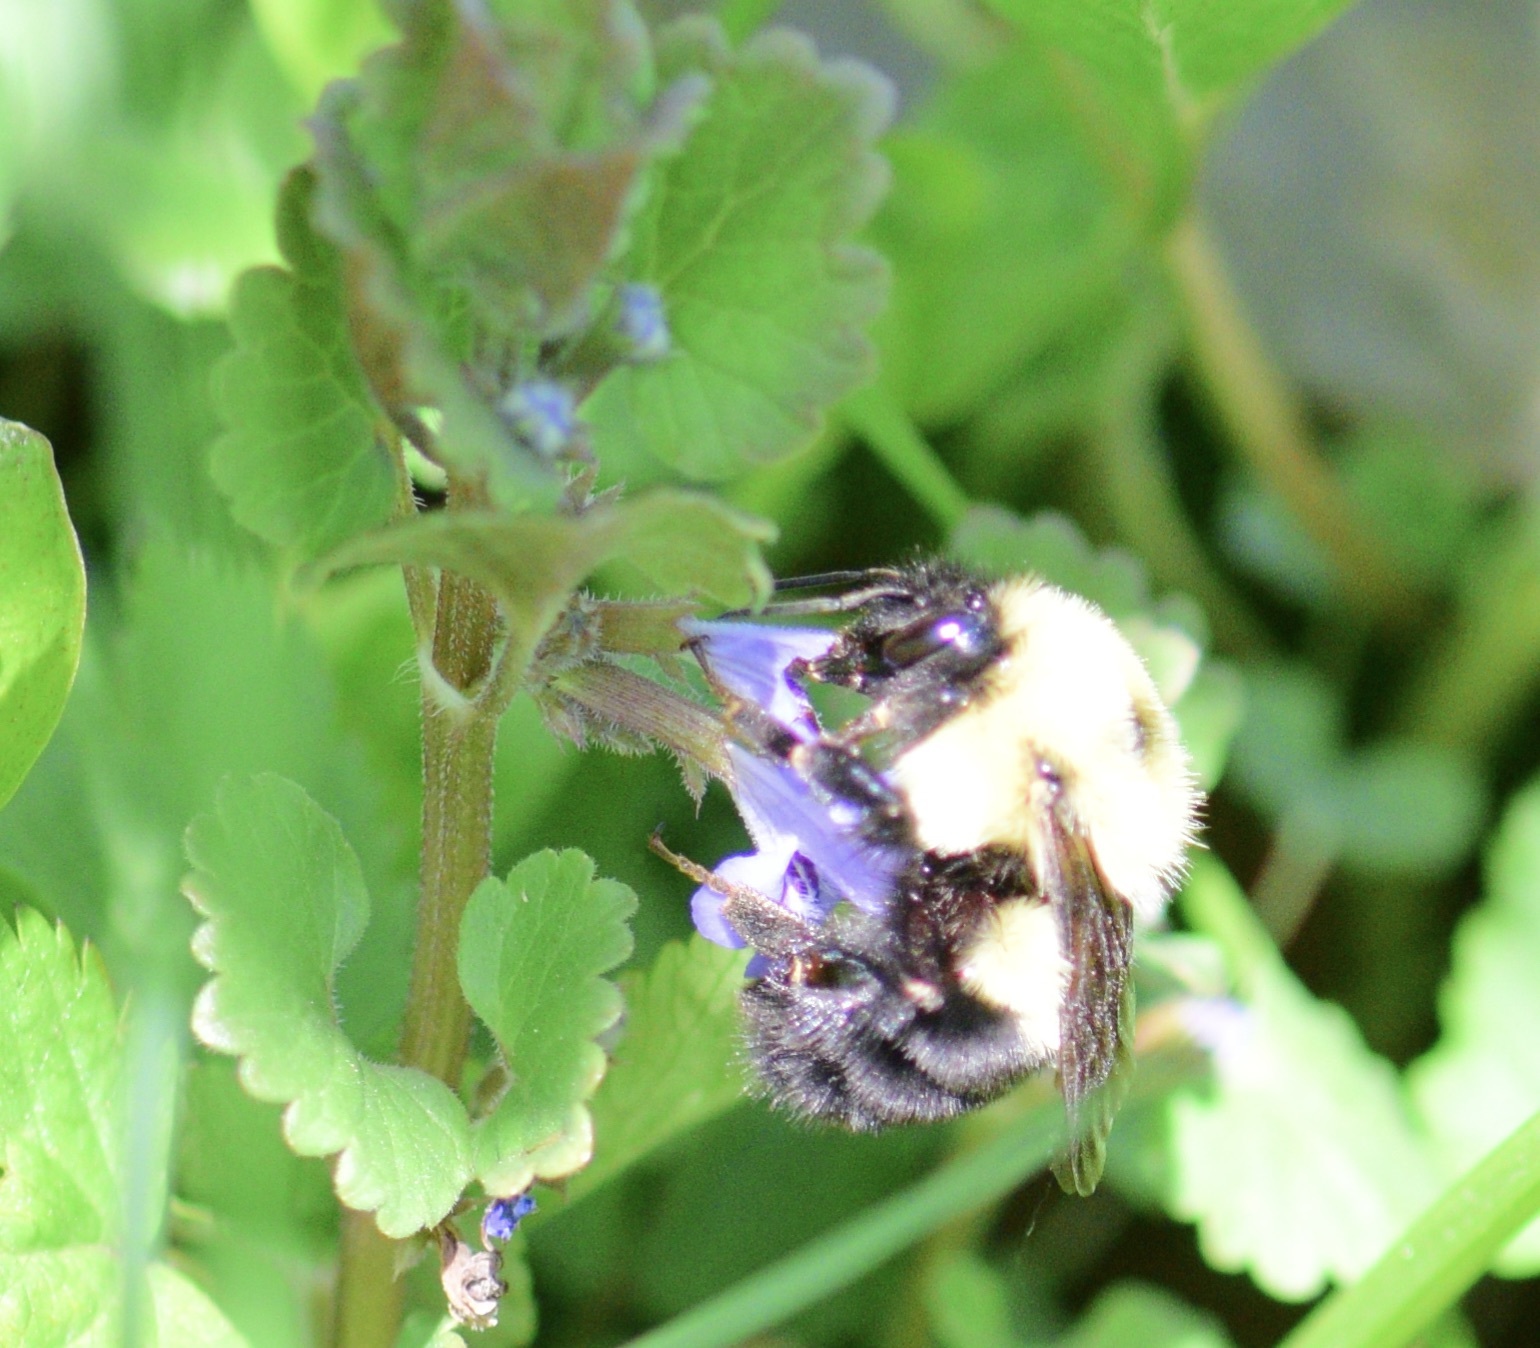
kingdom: Animalia
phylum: Arthropoda
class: Insecta
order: Hymenoptera
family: Apidae
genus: Bombus
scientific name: Bombus bimaculatus
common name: Two-spotted bumble bee
